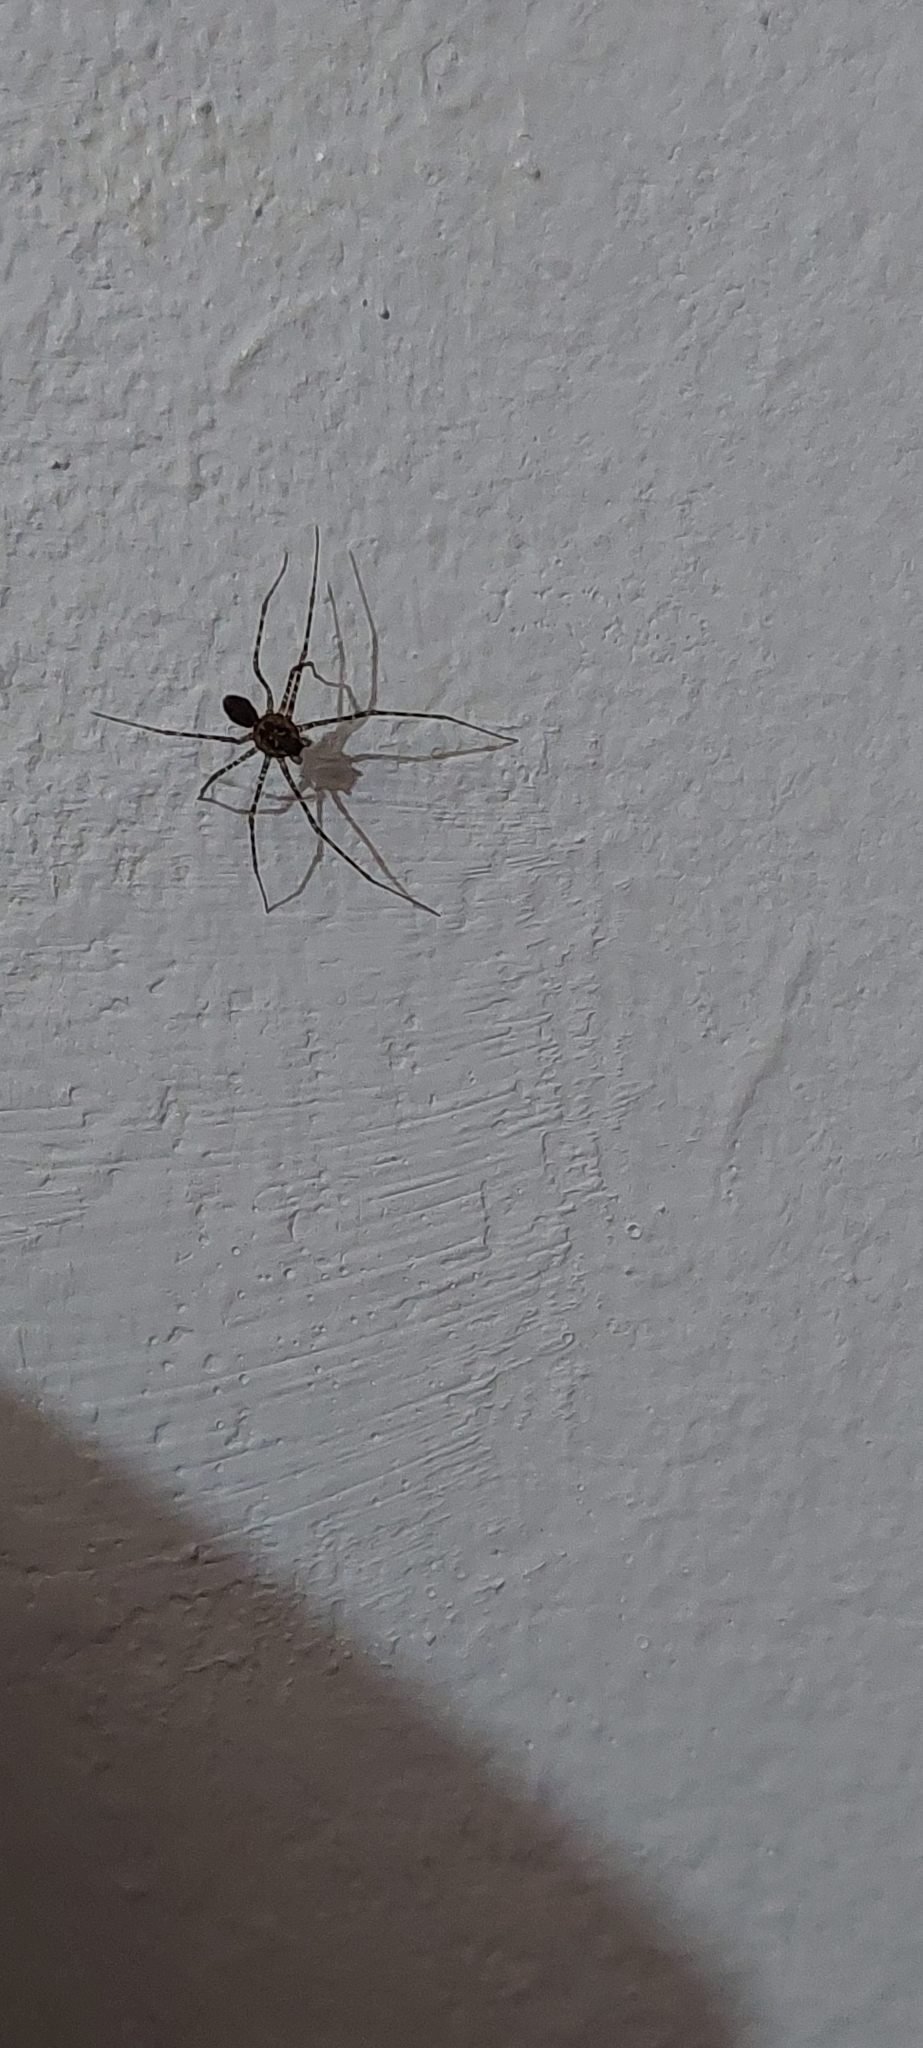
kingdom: Animalia
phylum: Arthropoda
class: Arachnida
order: Araneae
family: Scytodidae
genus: Scytodes
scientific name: Scytodes globula
